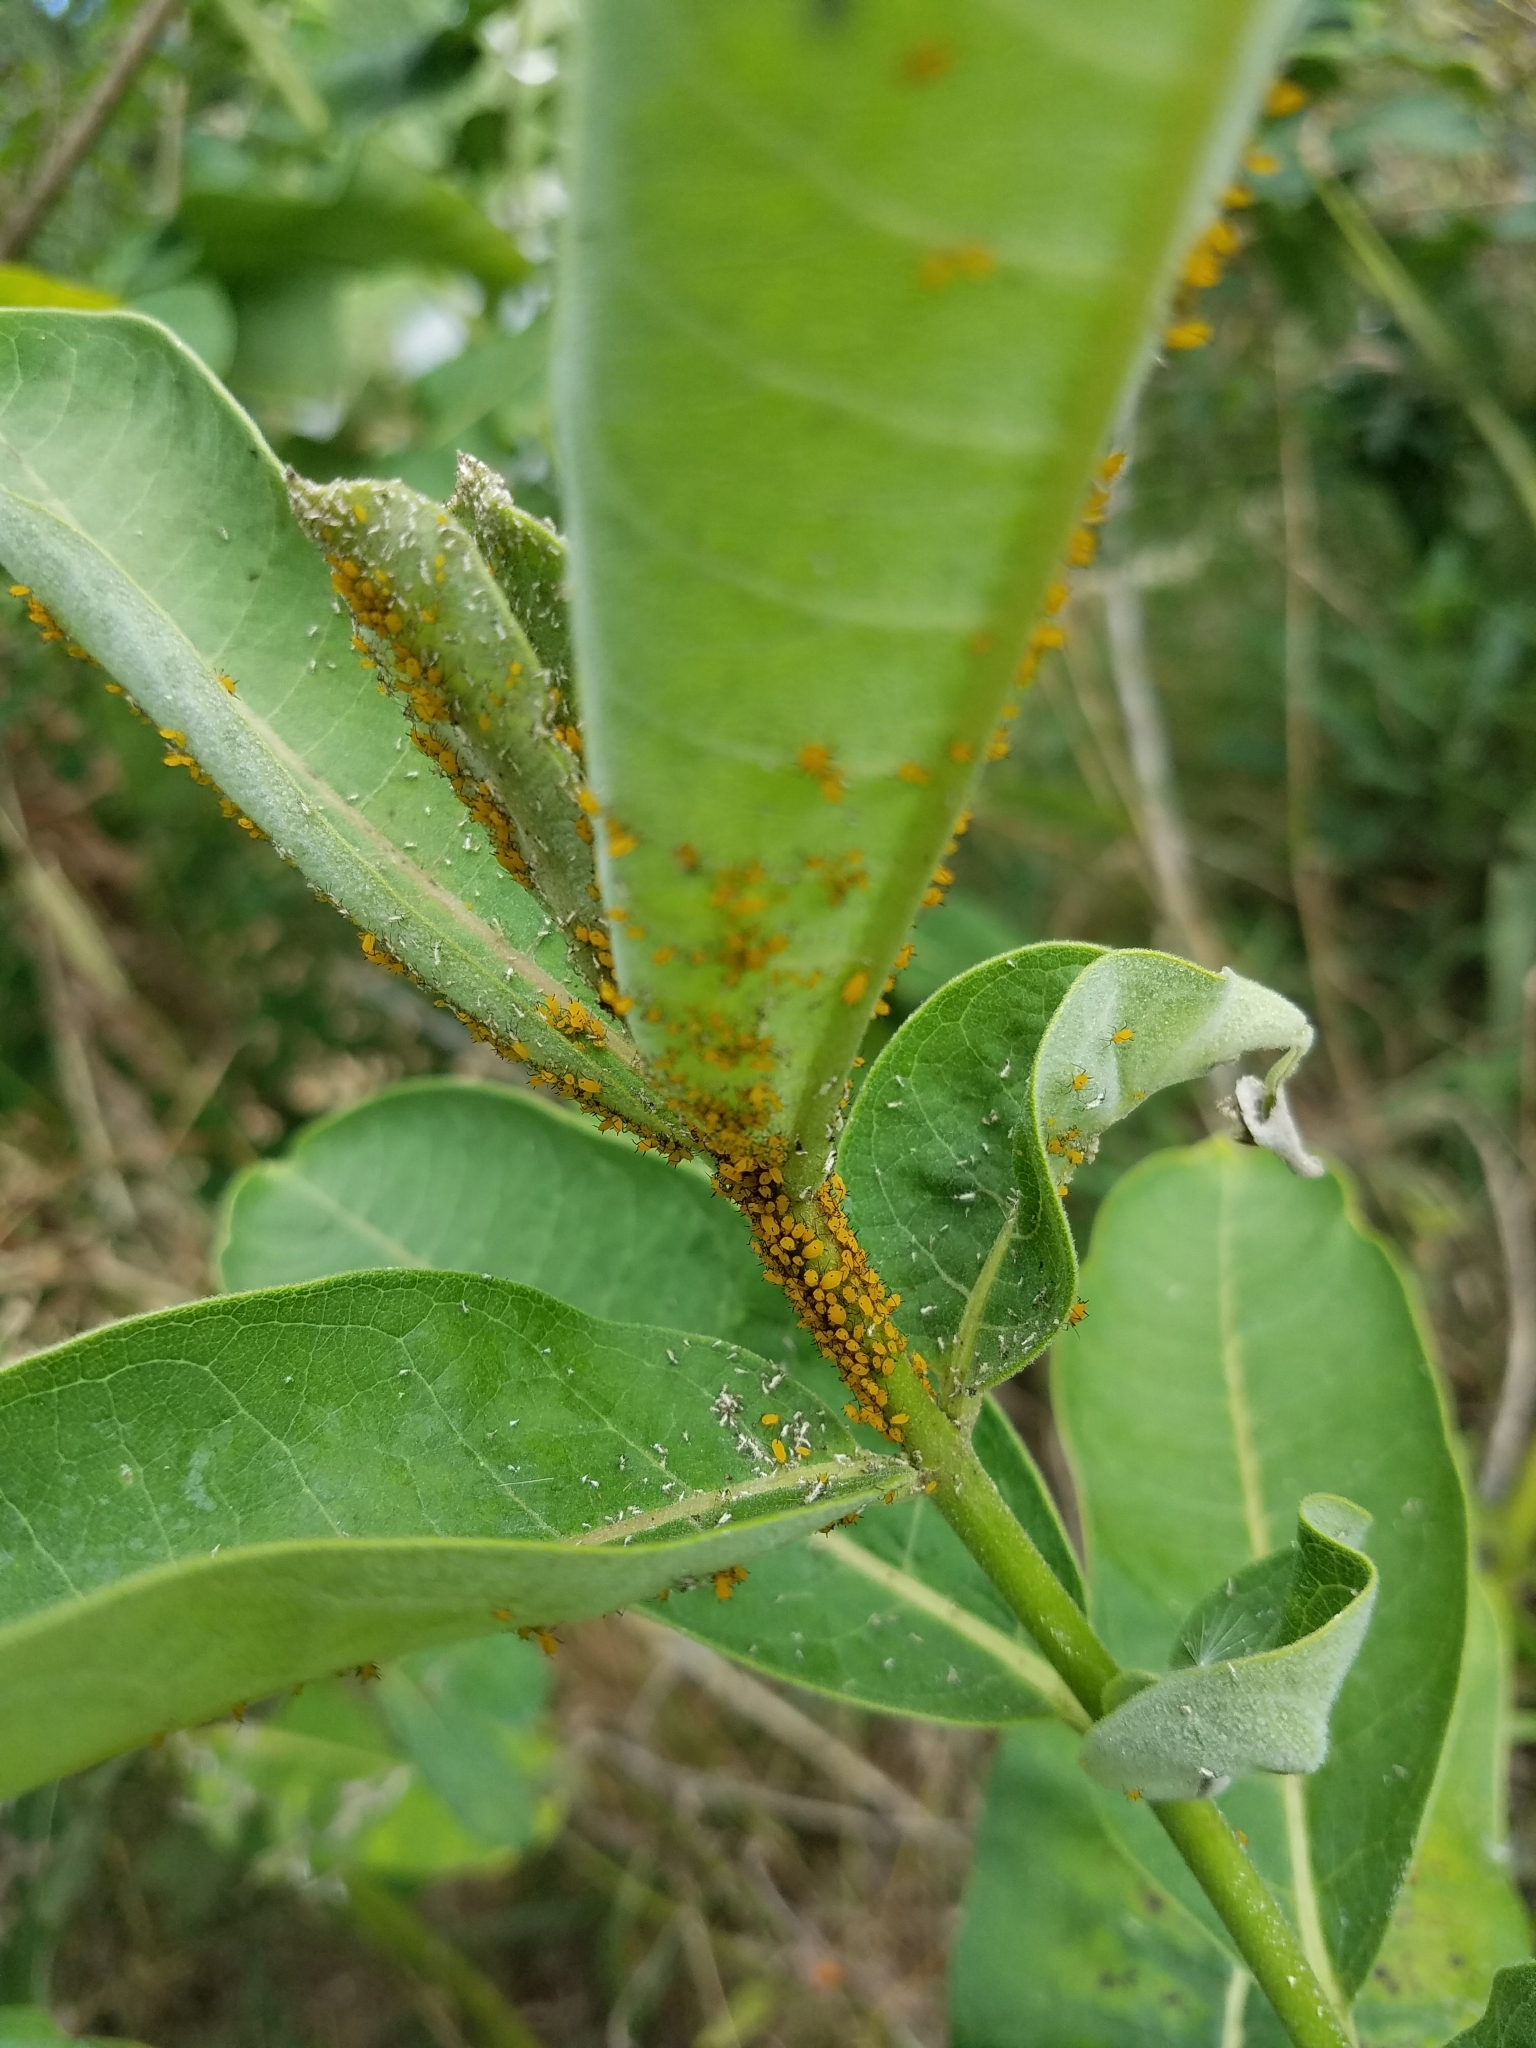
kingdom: Animalia
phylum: Arthropoda
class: Insecta
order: Hemiptera
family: Aphididae
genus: Aphis
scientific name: Aphis nerii
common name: Oleander aphid
